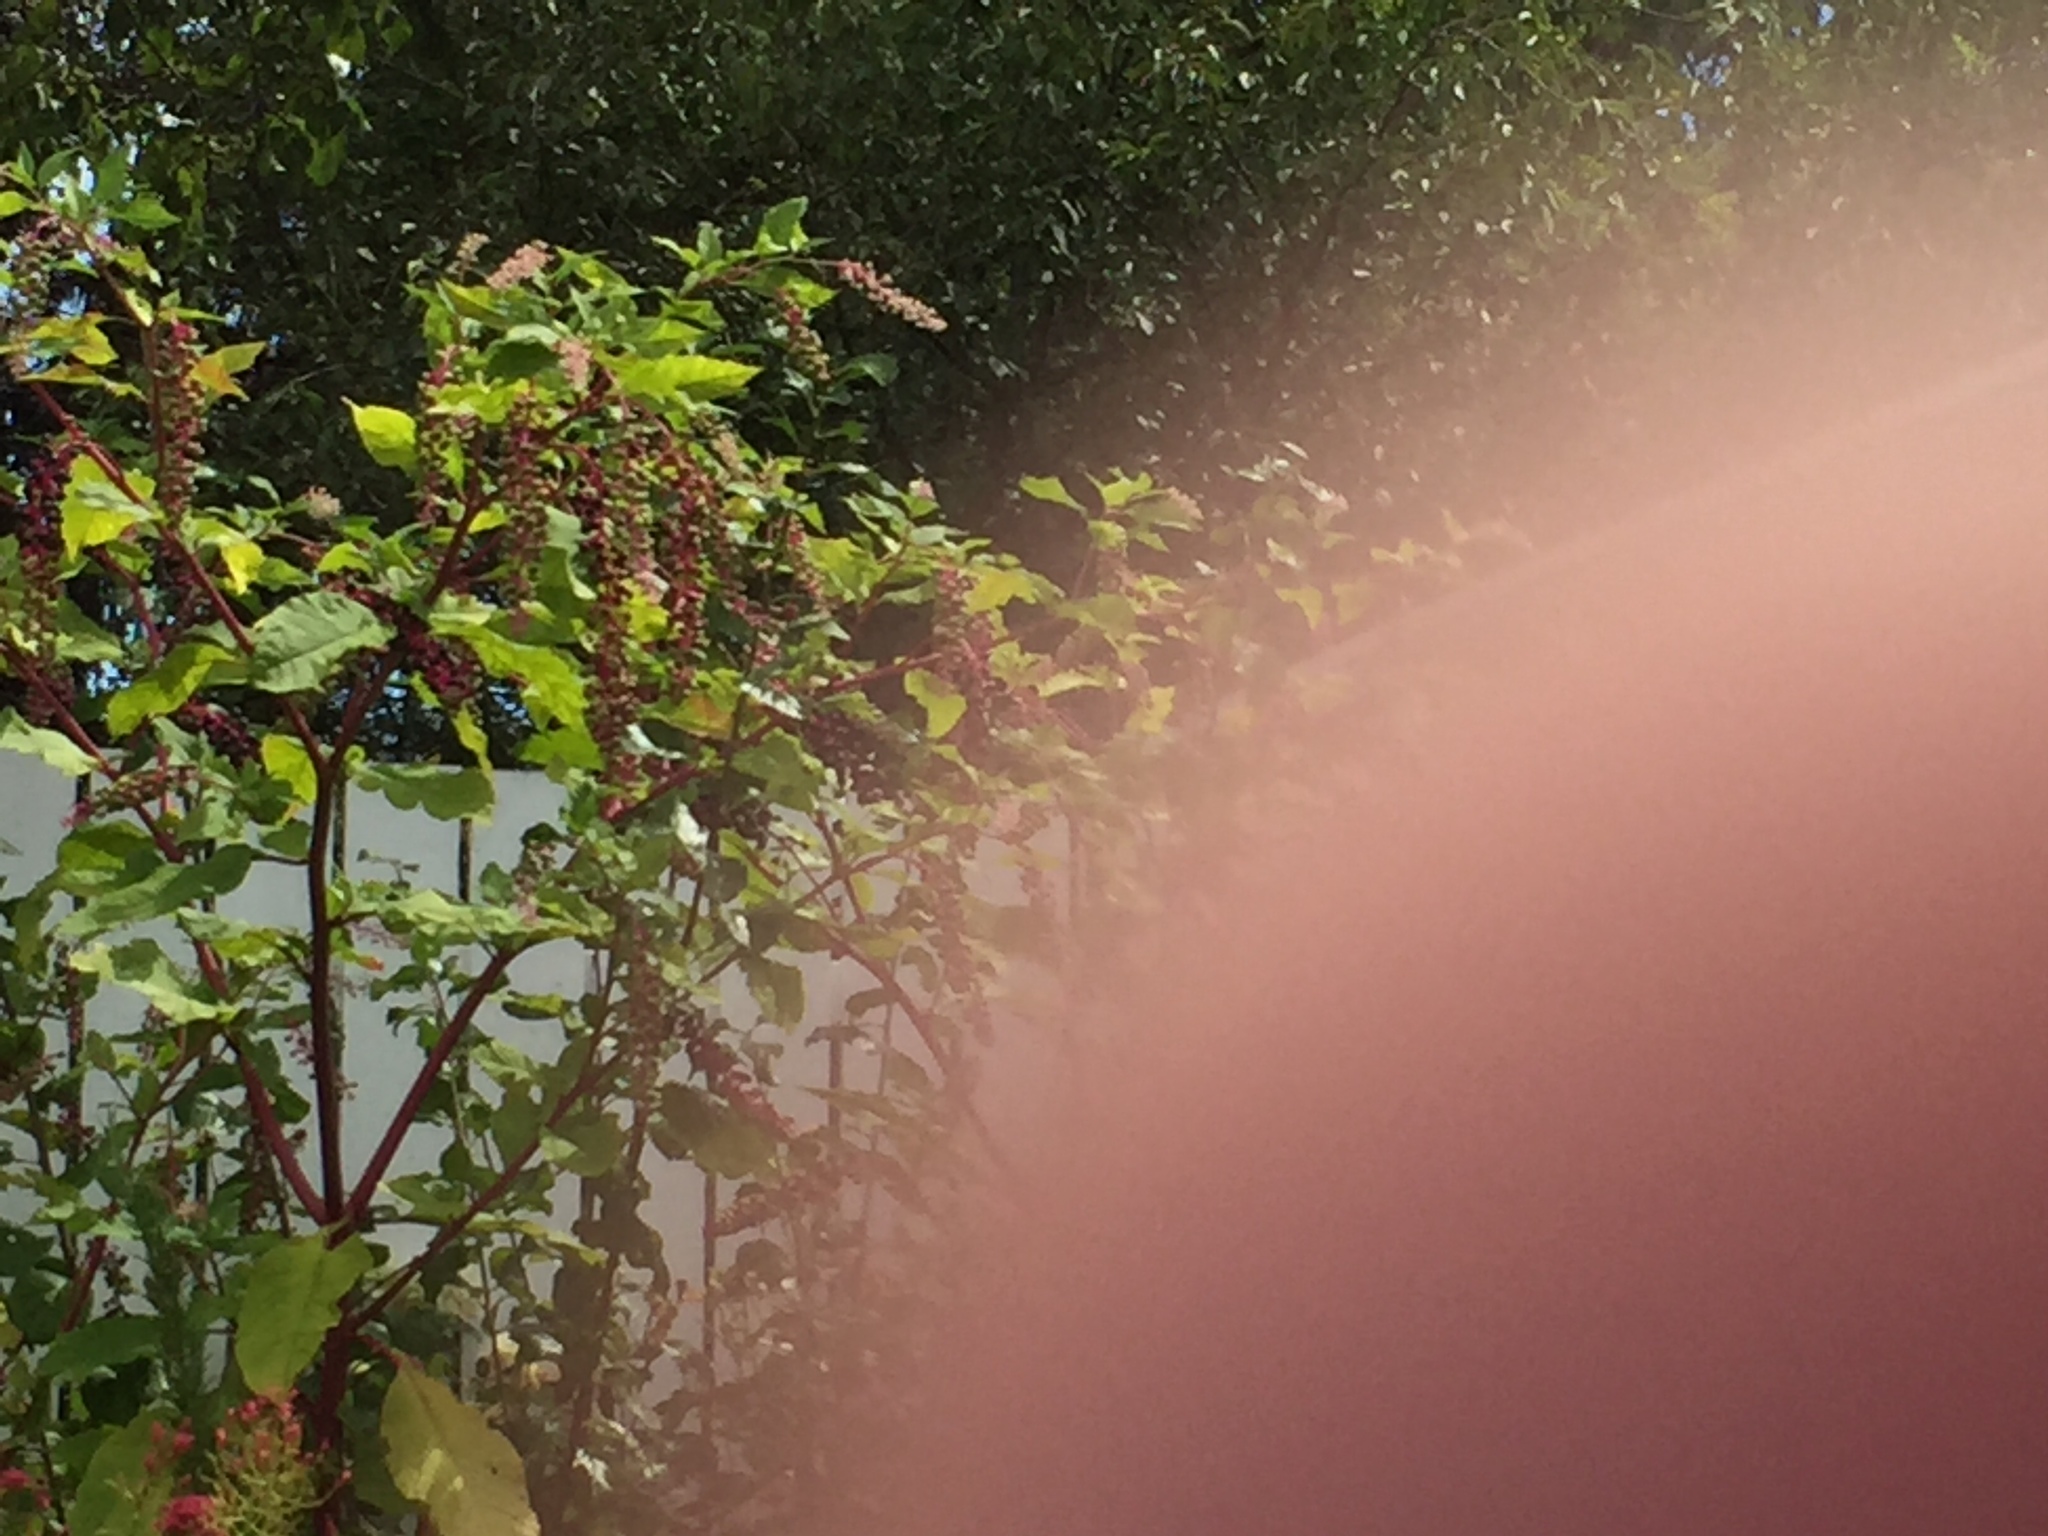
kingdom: Plantae
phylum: Tracheophyta
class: Magnoliopsida
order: Caryophyllales
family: Phytolaccaceae
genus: Phytolacca
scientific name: Phytolacca americana
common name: American pokeweed
